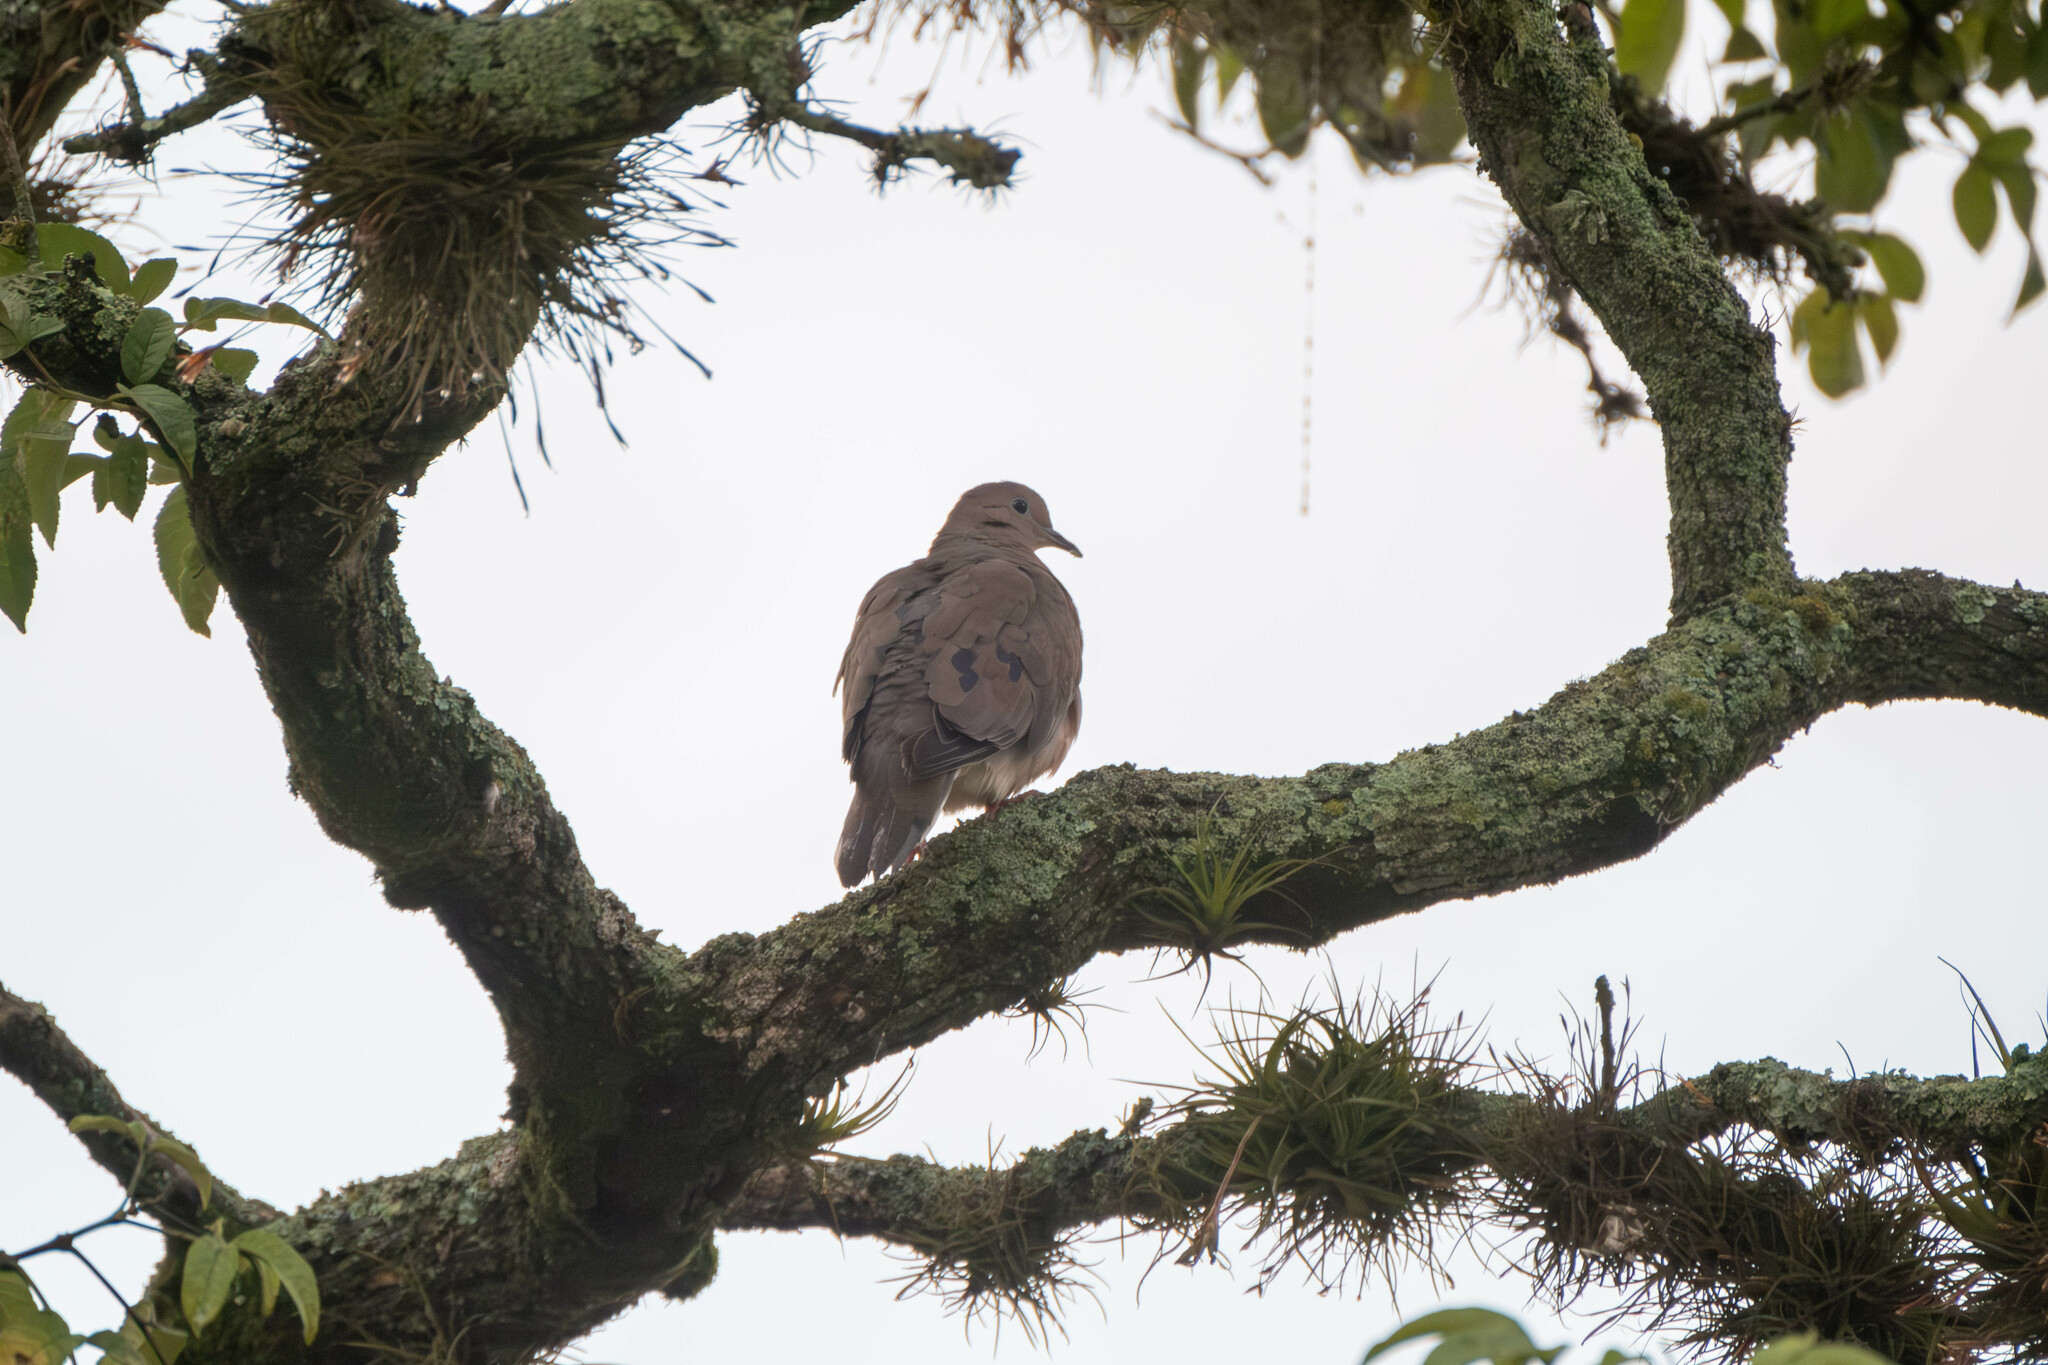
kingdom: Animalia
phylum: Chordata
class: Aves
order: Columbiformes
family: Columbidae
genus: Zenaida
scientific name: Zenaida auriculata
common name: Eared dove
